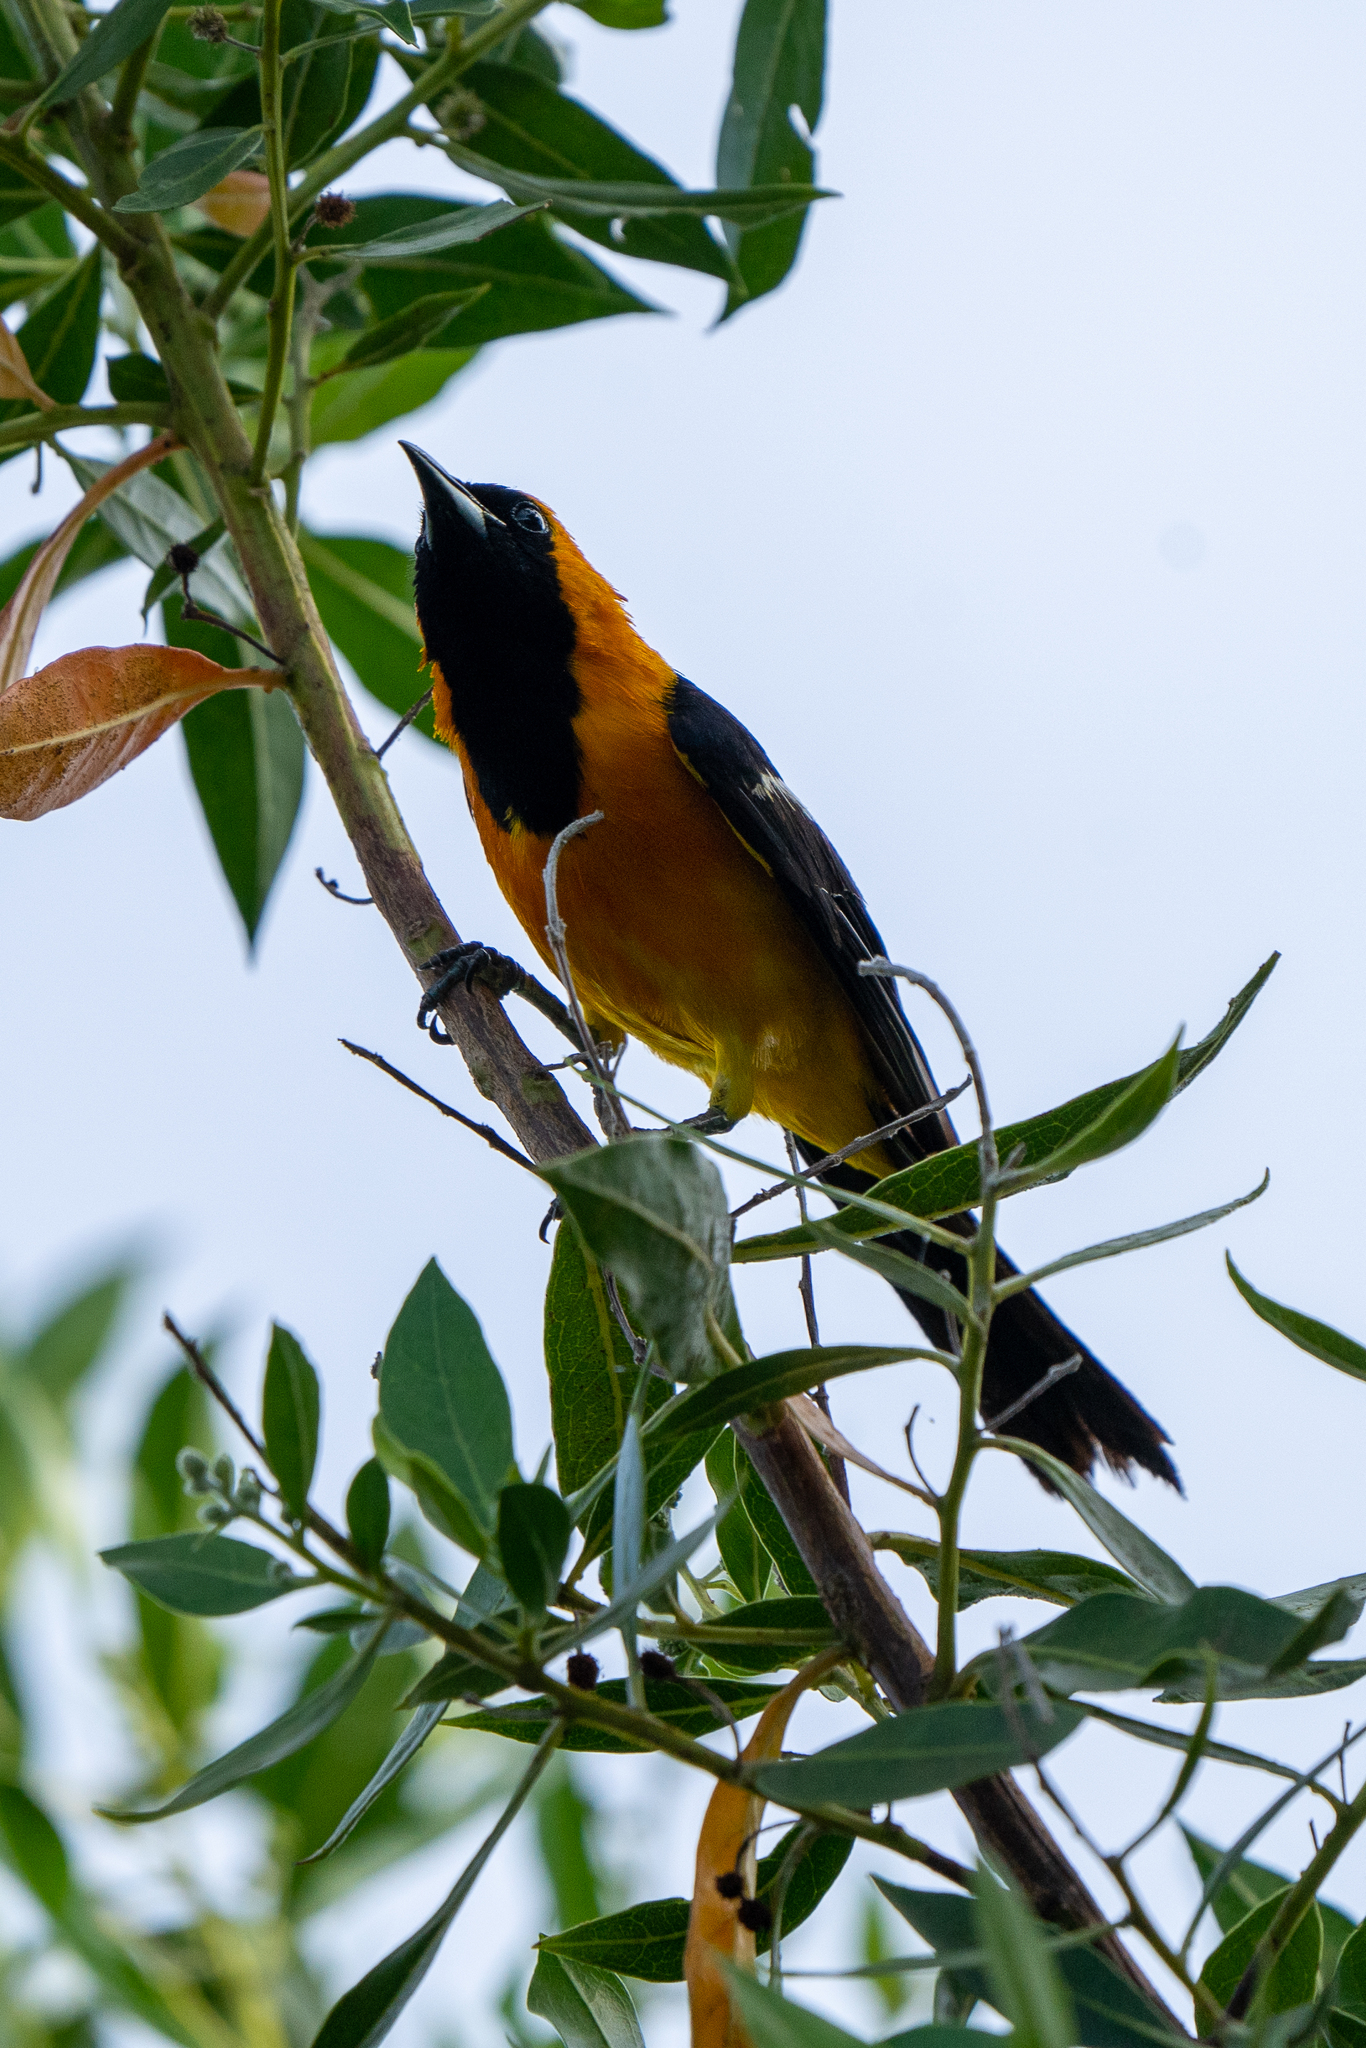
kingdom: Animalia
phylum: Chordata
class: Aves
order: Passeriformes
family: Icteridae
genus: Icterus
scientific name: Icterus cucullatus
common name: Hooded oriole
